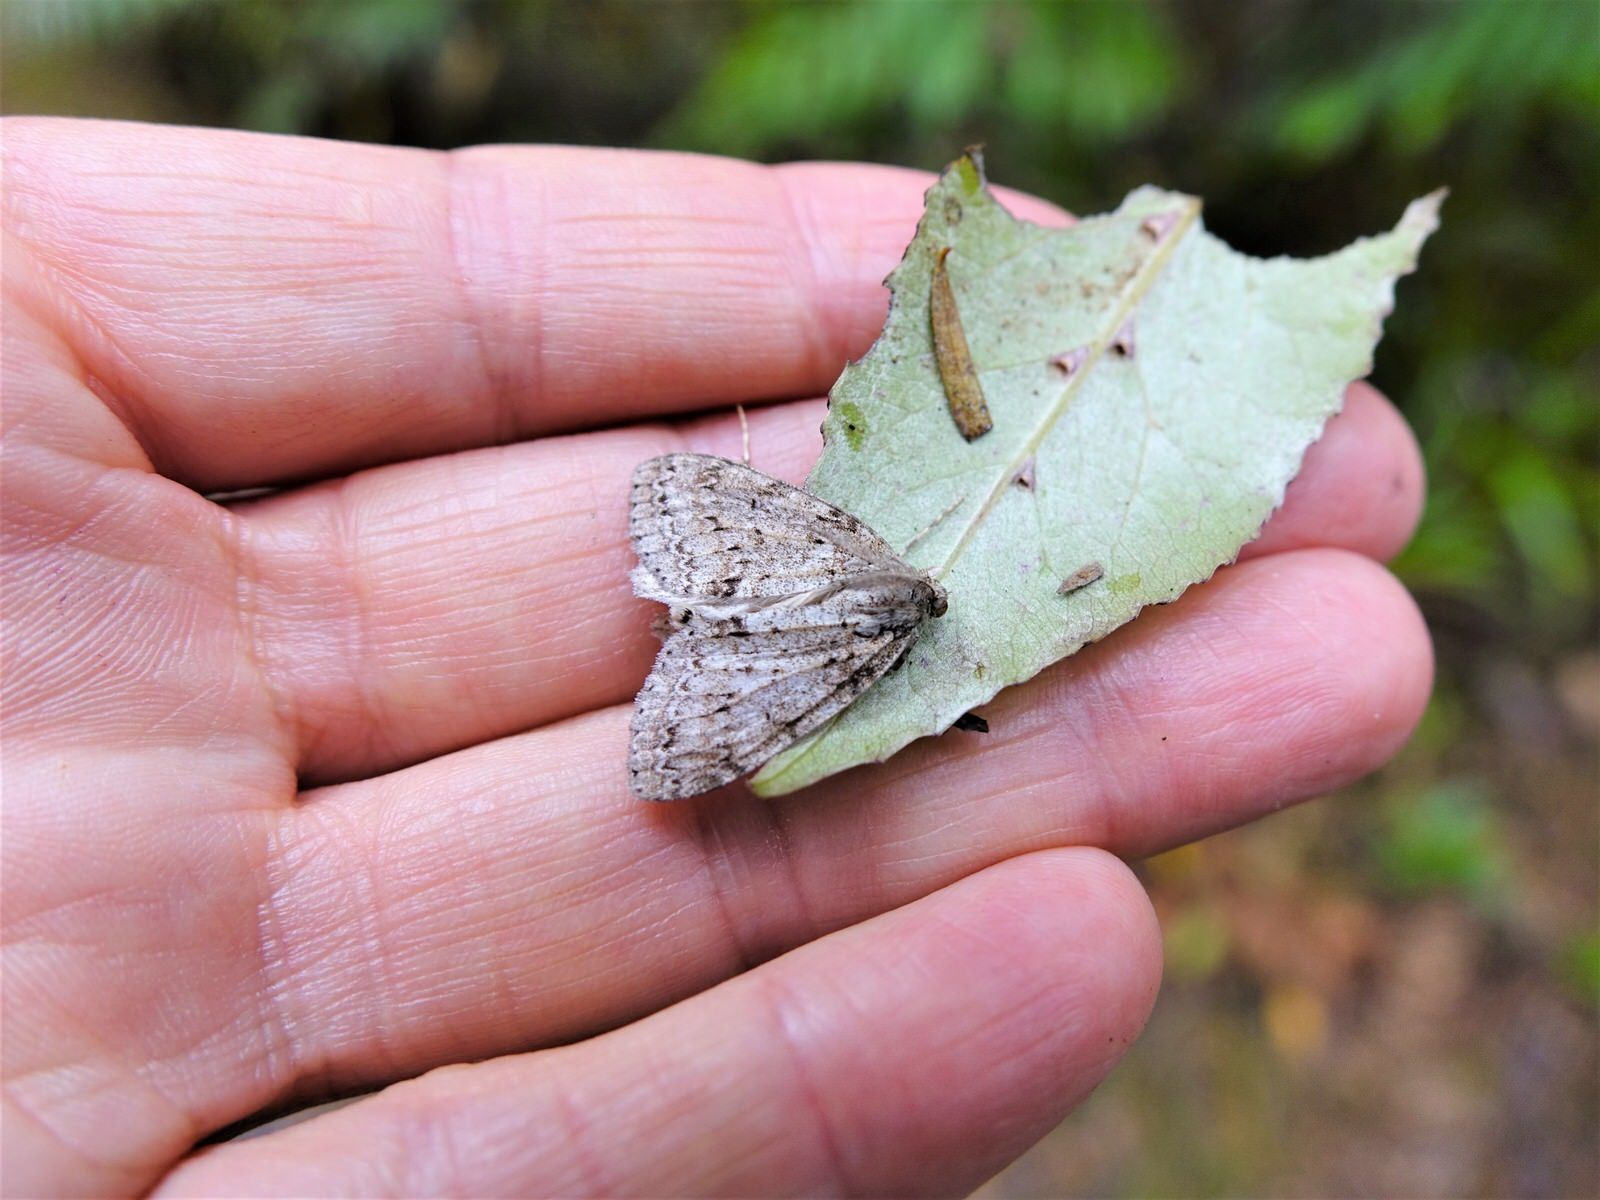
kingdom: Animalia
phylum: Arthropoda
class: Insecta
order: Lepidoptera
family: Geometridae
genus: Pseudocoremia
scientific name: Pseudocoremia fenerata
